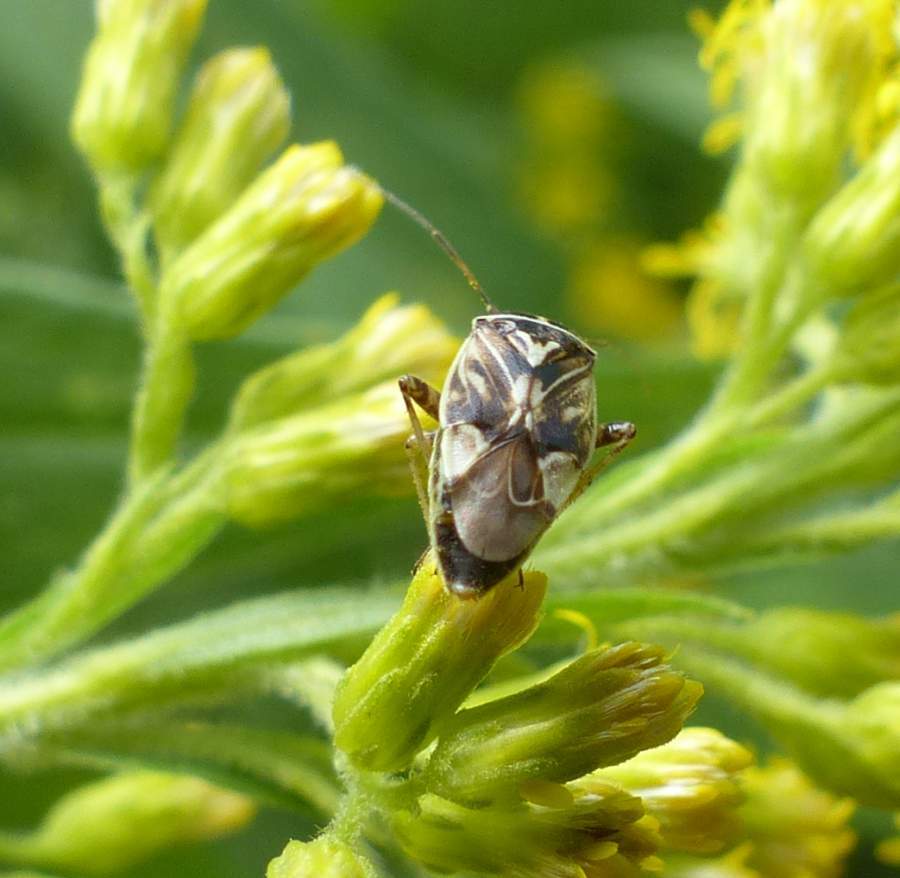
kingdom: Animalia
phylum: Arthropoda
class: Insecta
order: Hemiptera
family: Miridae
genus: Lygus
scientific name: Lygus lineolaris
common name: North american tarnished plant bug
